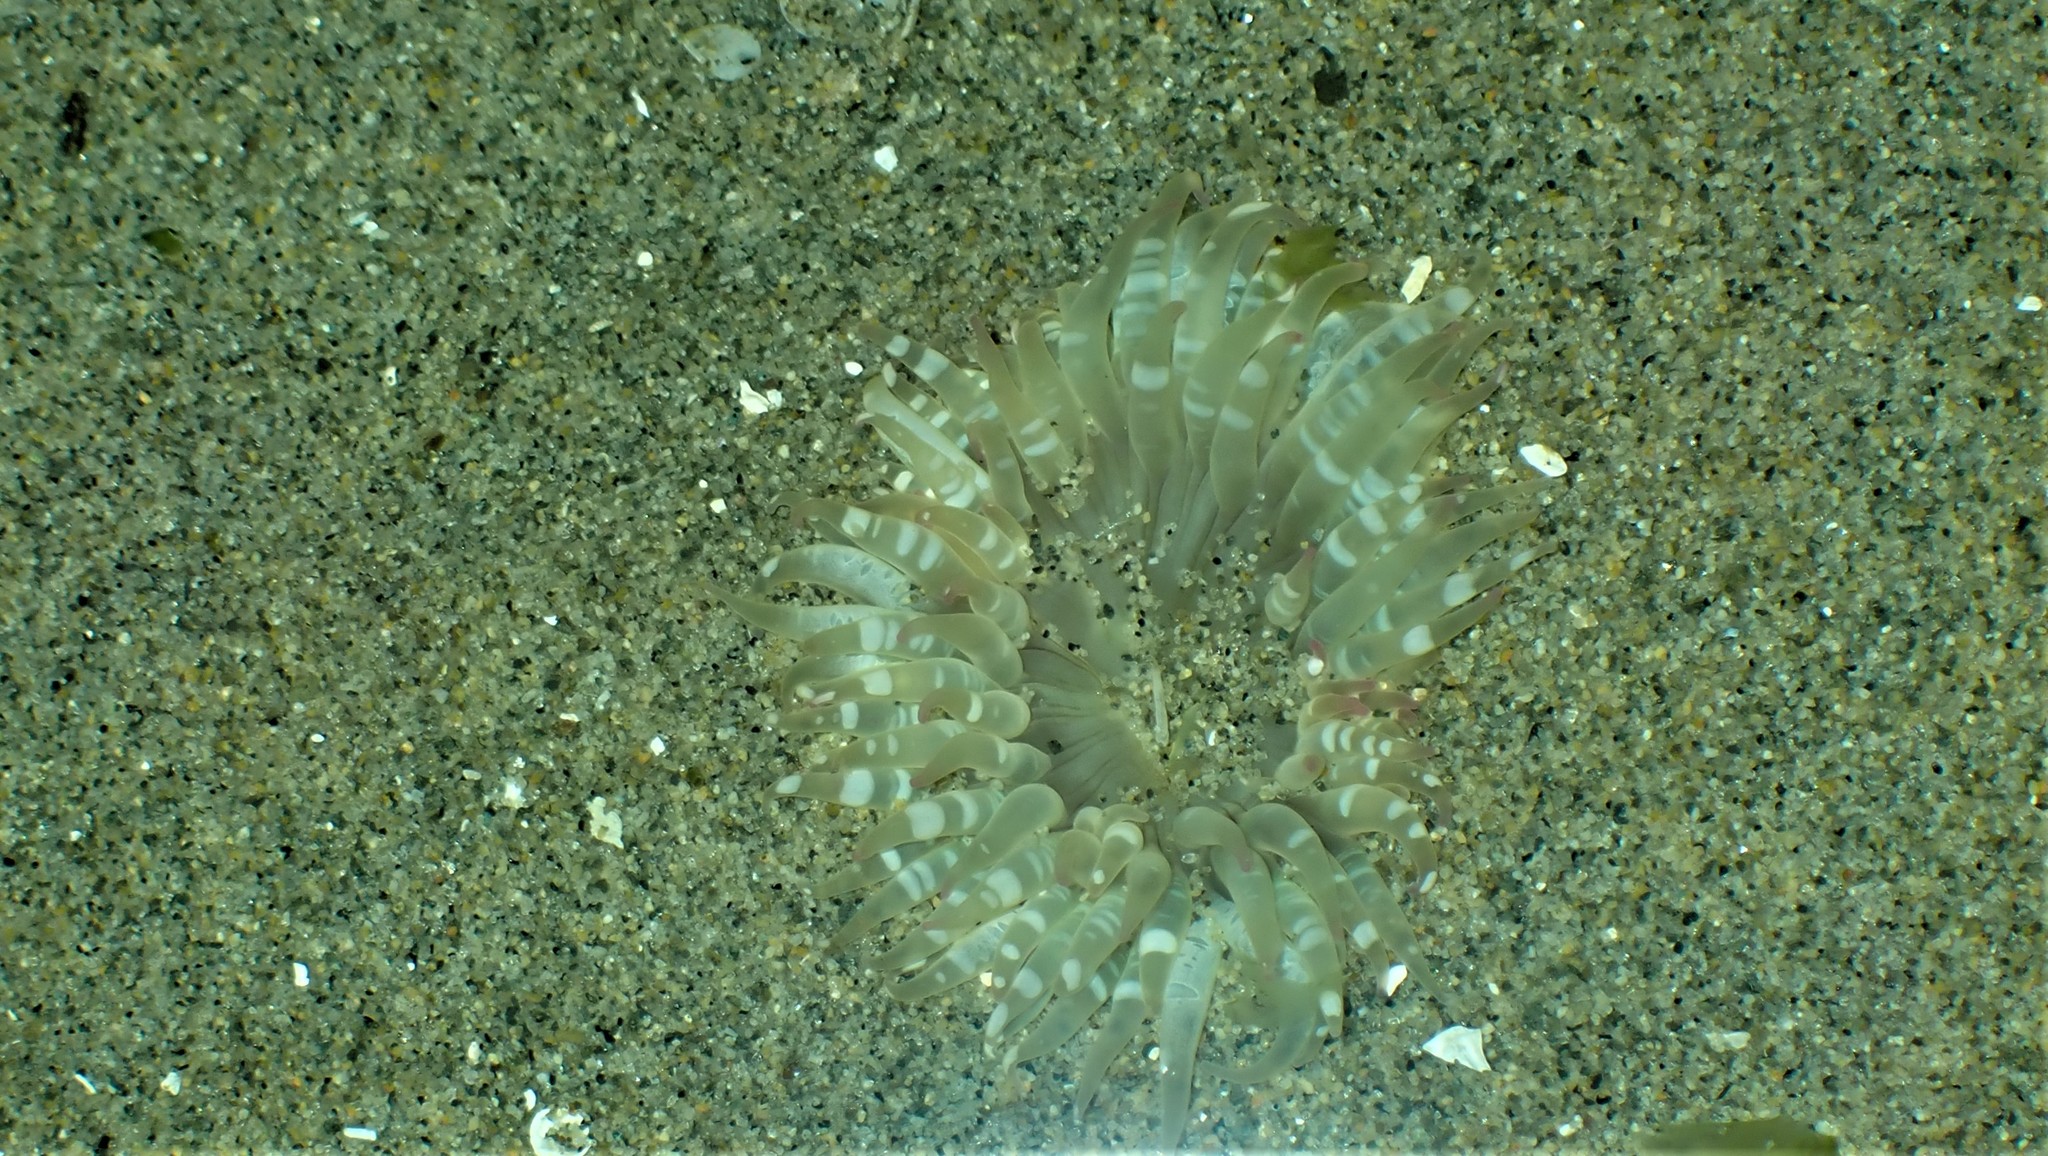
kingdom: Animalia
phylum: Cnidaria
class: Anthozoa
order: Actiniaria
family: Actiniidae
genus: Anthopleura
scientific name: Anthopleura elegantissima
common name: Clonal anemone
